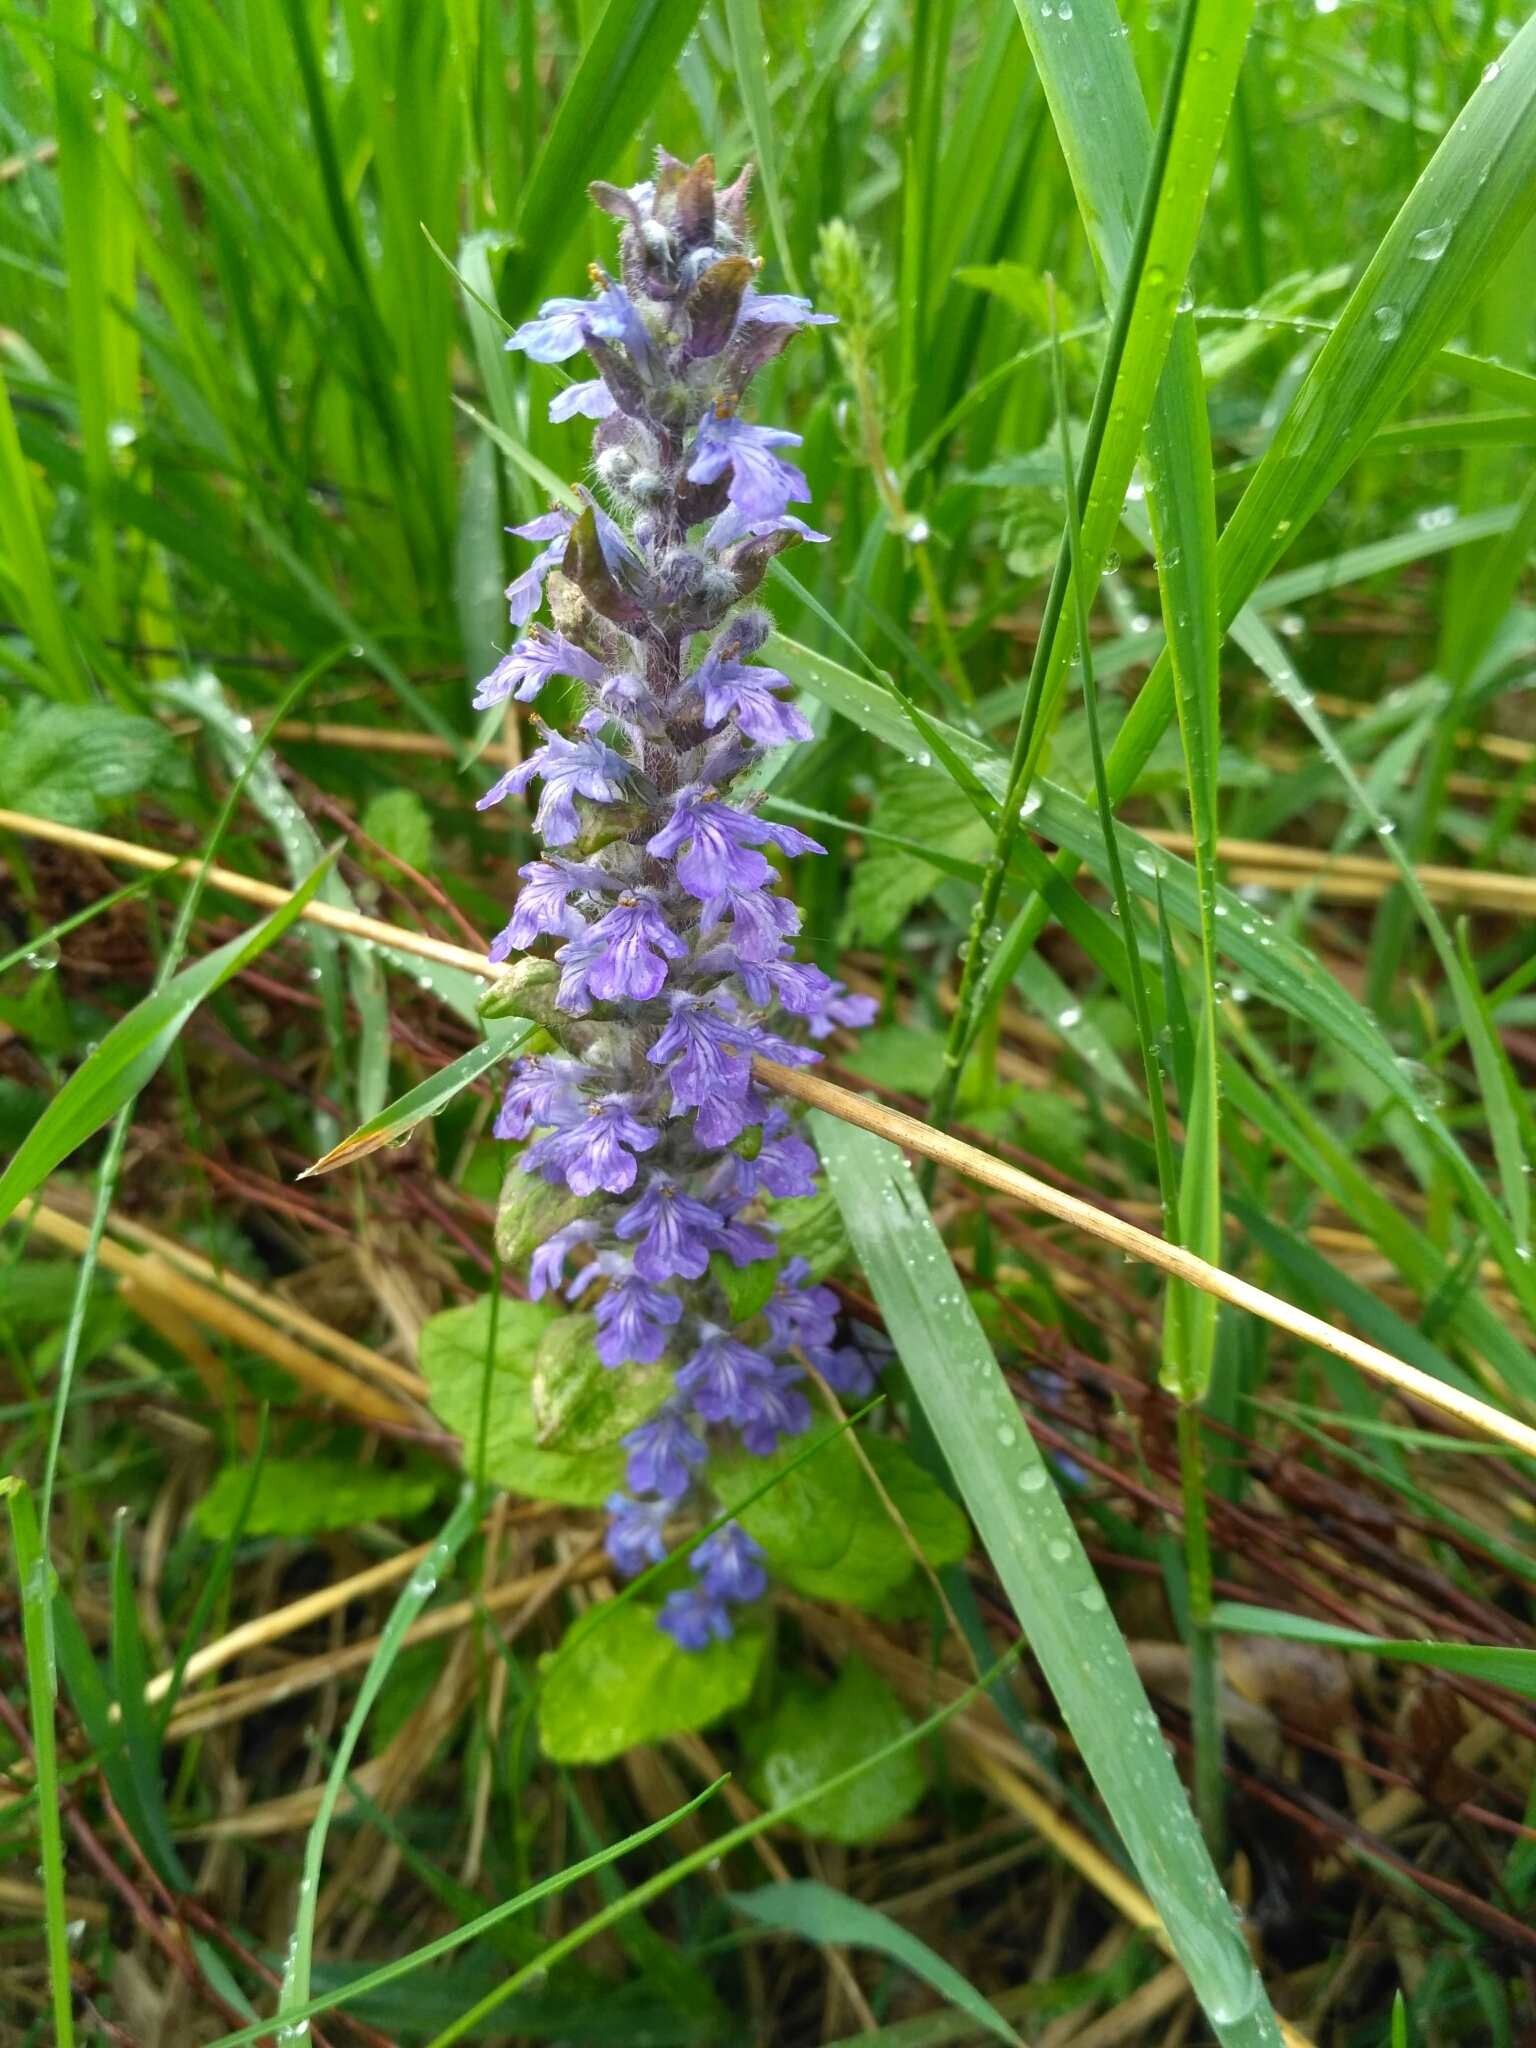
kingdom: Plantae
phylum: Tracheophyta
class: Magnoliopsida
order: Lamiales
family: Lamiaceae
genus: Ajuga
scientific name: Ajuga reptans
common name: Bugle
